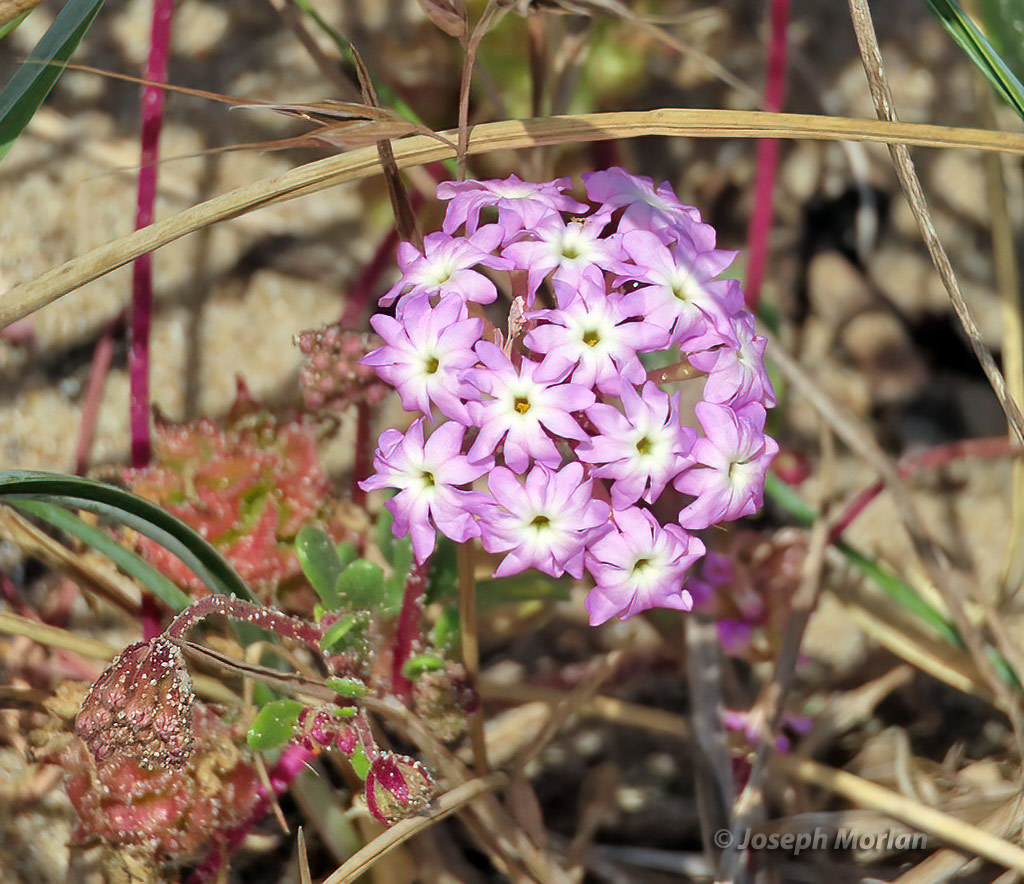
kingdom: Plantae
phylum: Tracheophyta
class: Magnoliopsida
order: Caryophyllales
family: Nyctaginaceae
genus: Abronia
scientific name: Abronia umbellata
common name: Sand-verbena
